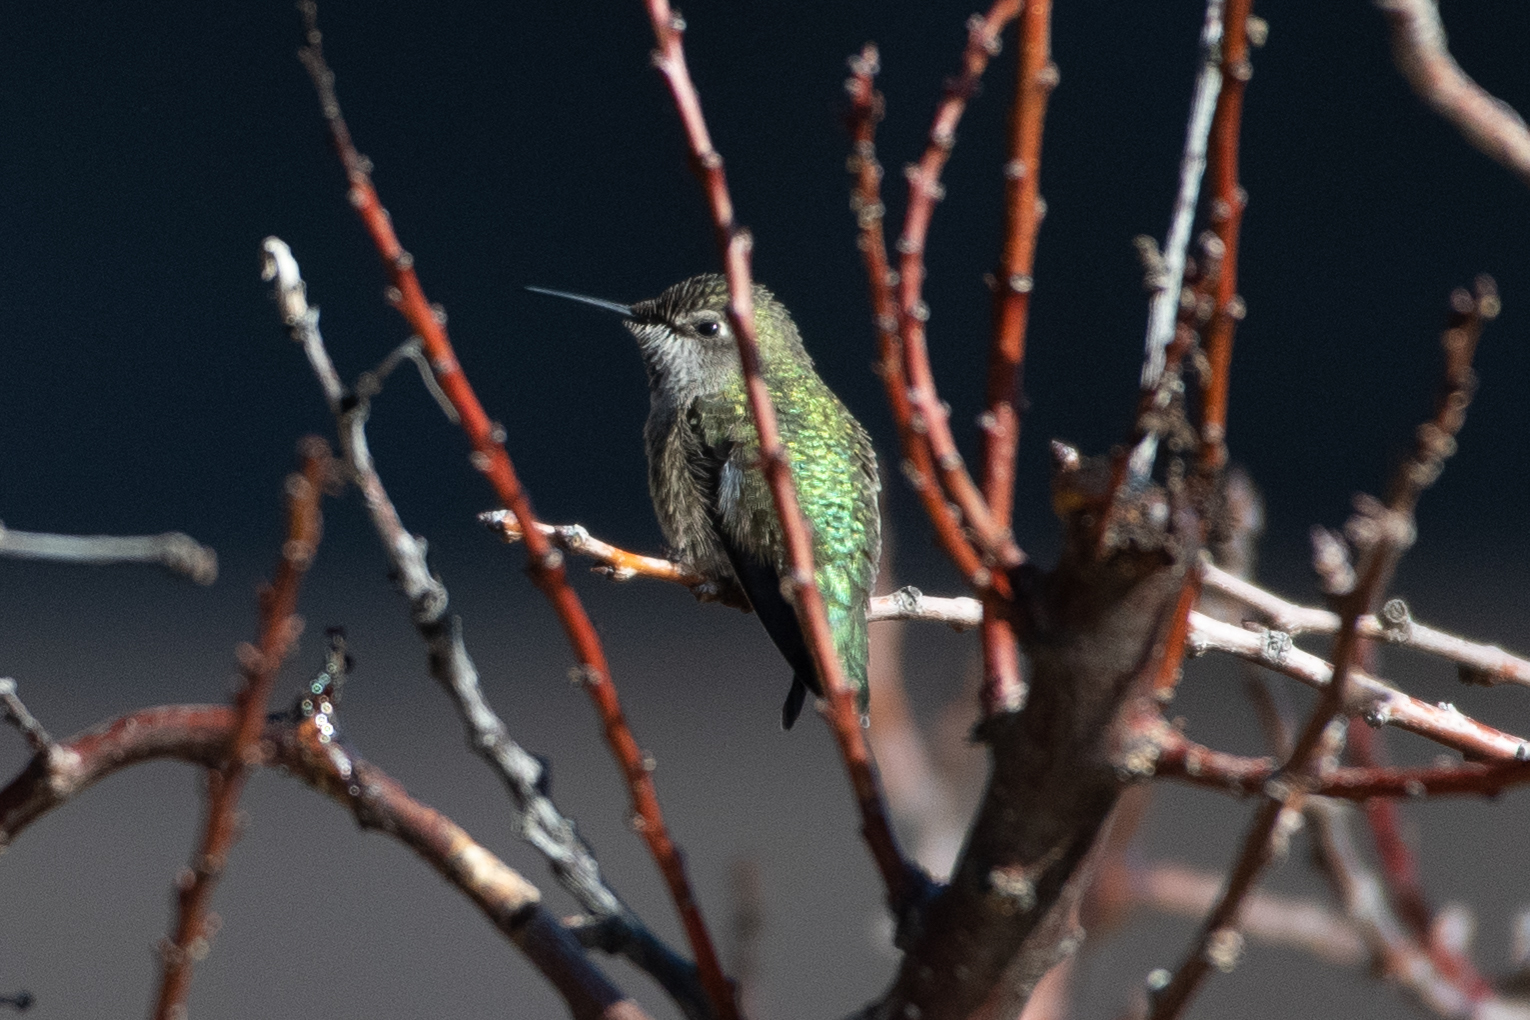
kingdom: Animalia
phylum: Chordata
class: Aves
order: Apodiformes
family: Trochilidae
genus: Calypte
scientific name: Calypte anna
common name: Anna's hummingbird
